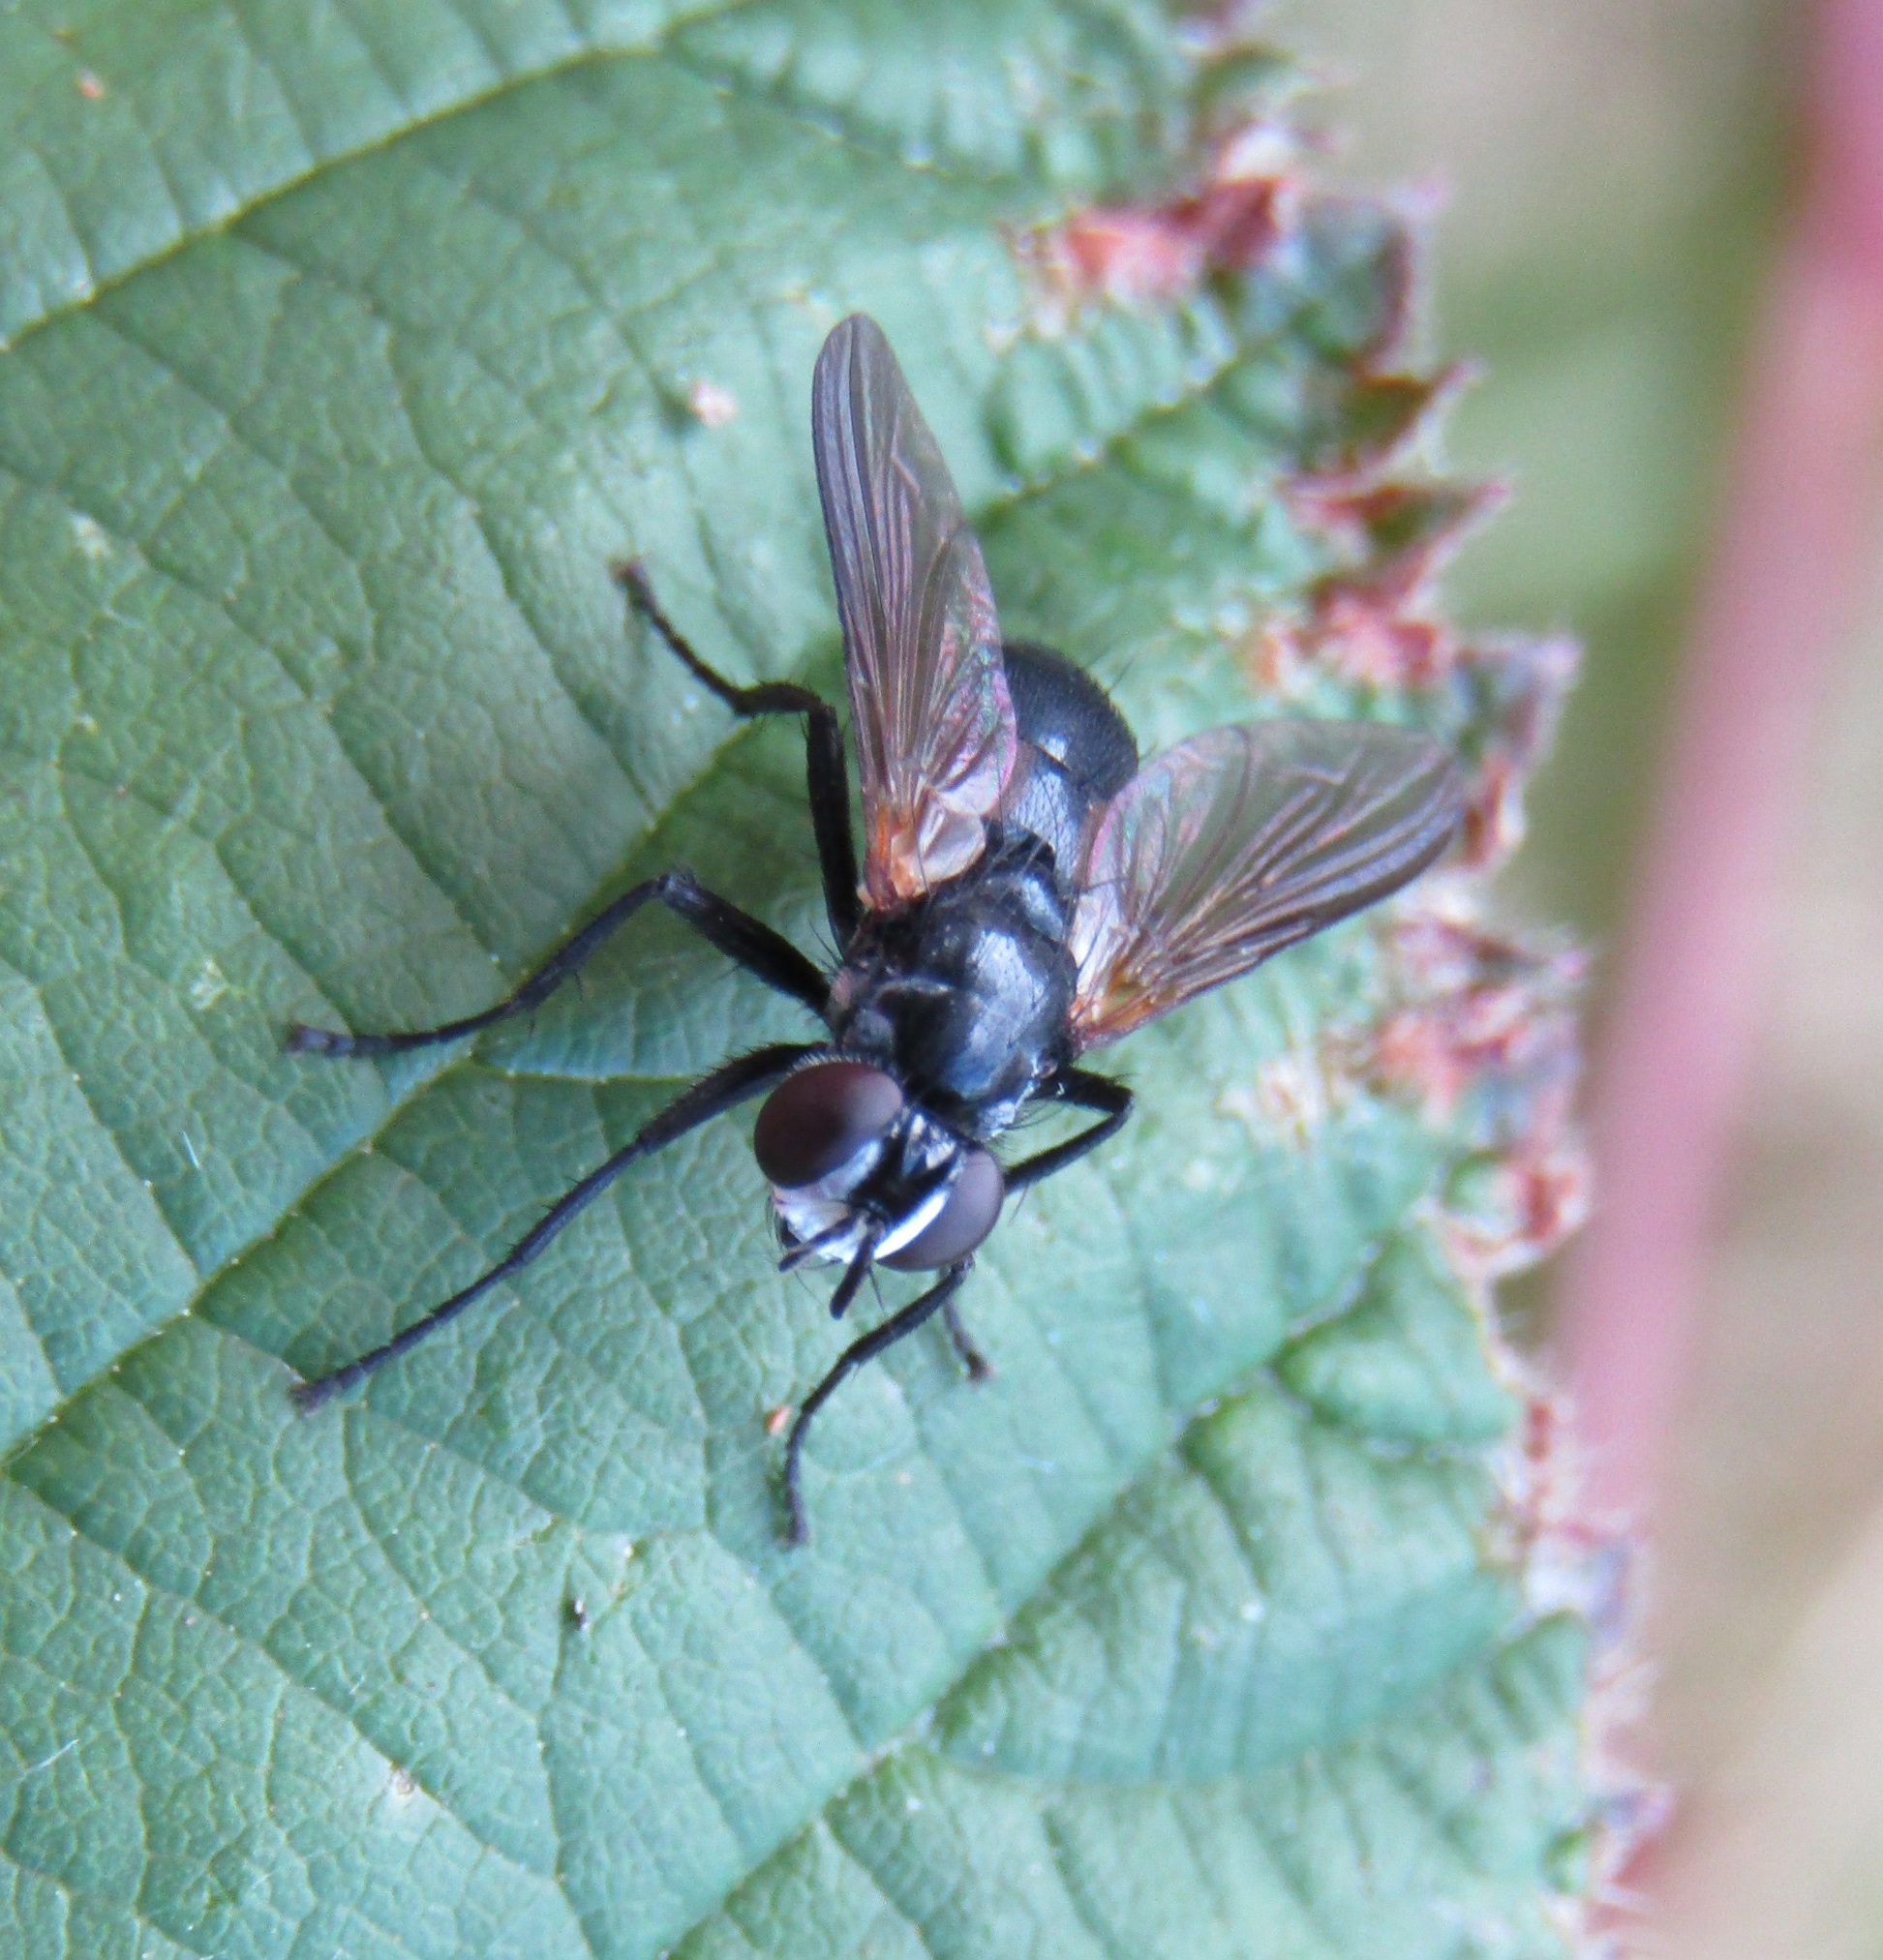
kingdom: Animalia
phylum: Arthropoda
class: Insecta
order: Diptera
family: Tachinidae
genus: Hemyda
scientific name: Hemyda
